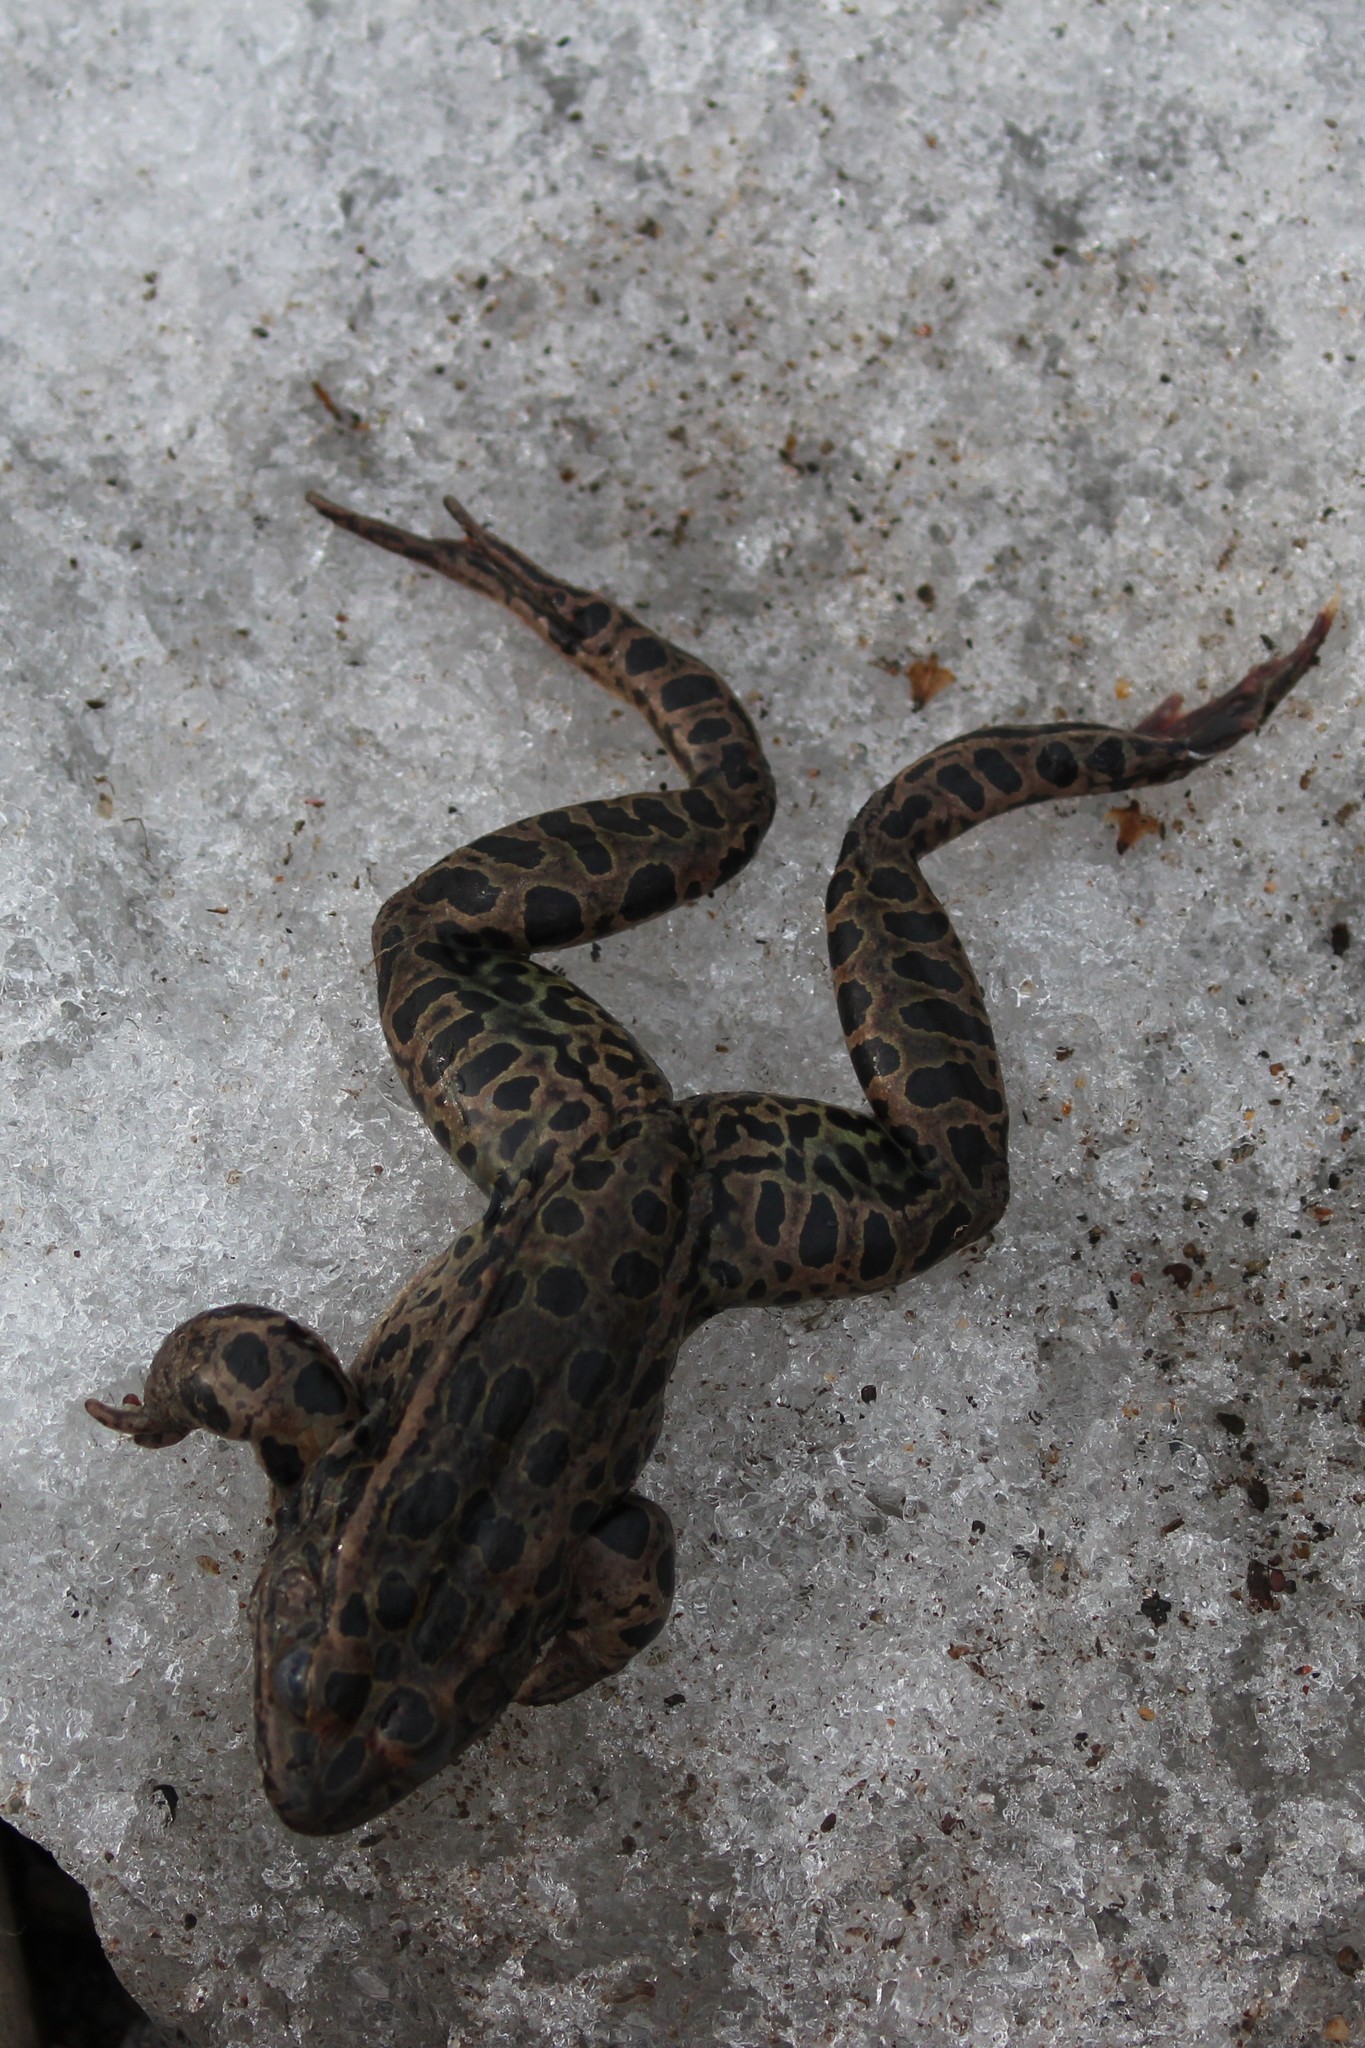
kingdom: Animalia
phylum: Chordata
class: Amphibia
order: Anura
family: Ranidae
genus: Lithobates
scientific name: Lithobates pipiens
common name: Northern leopard frog
